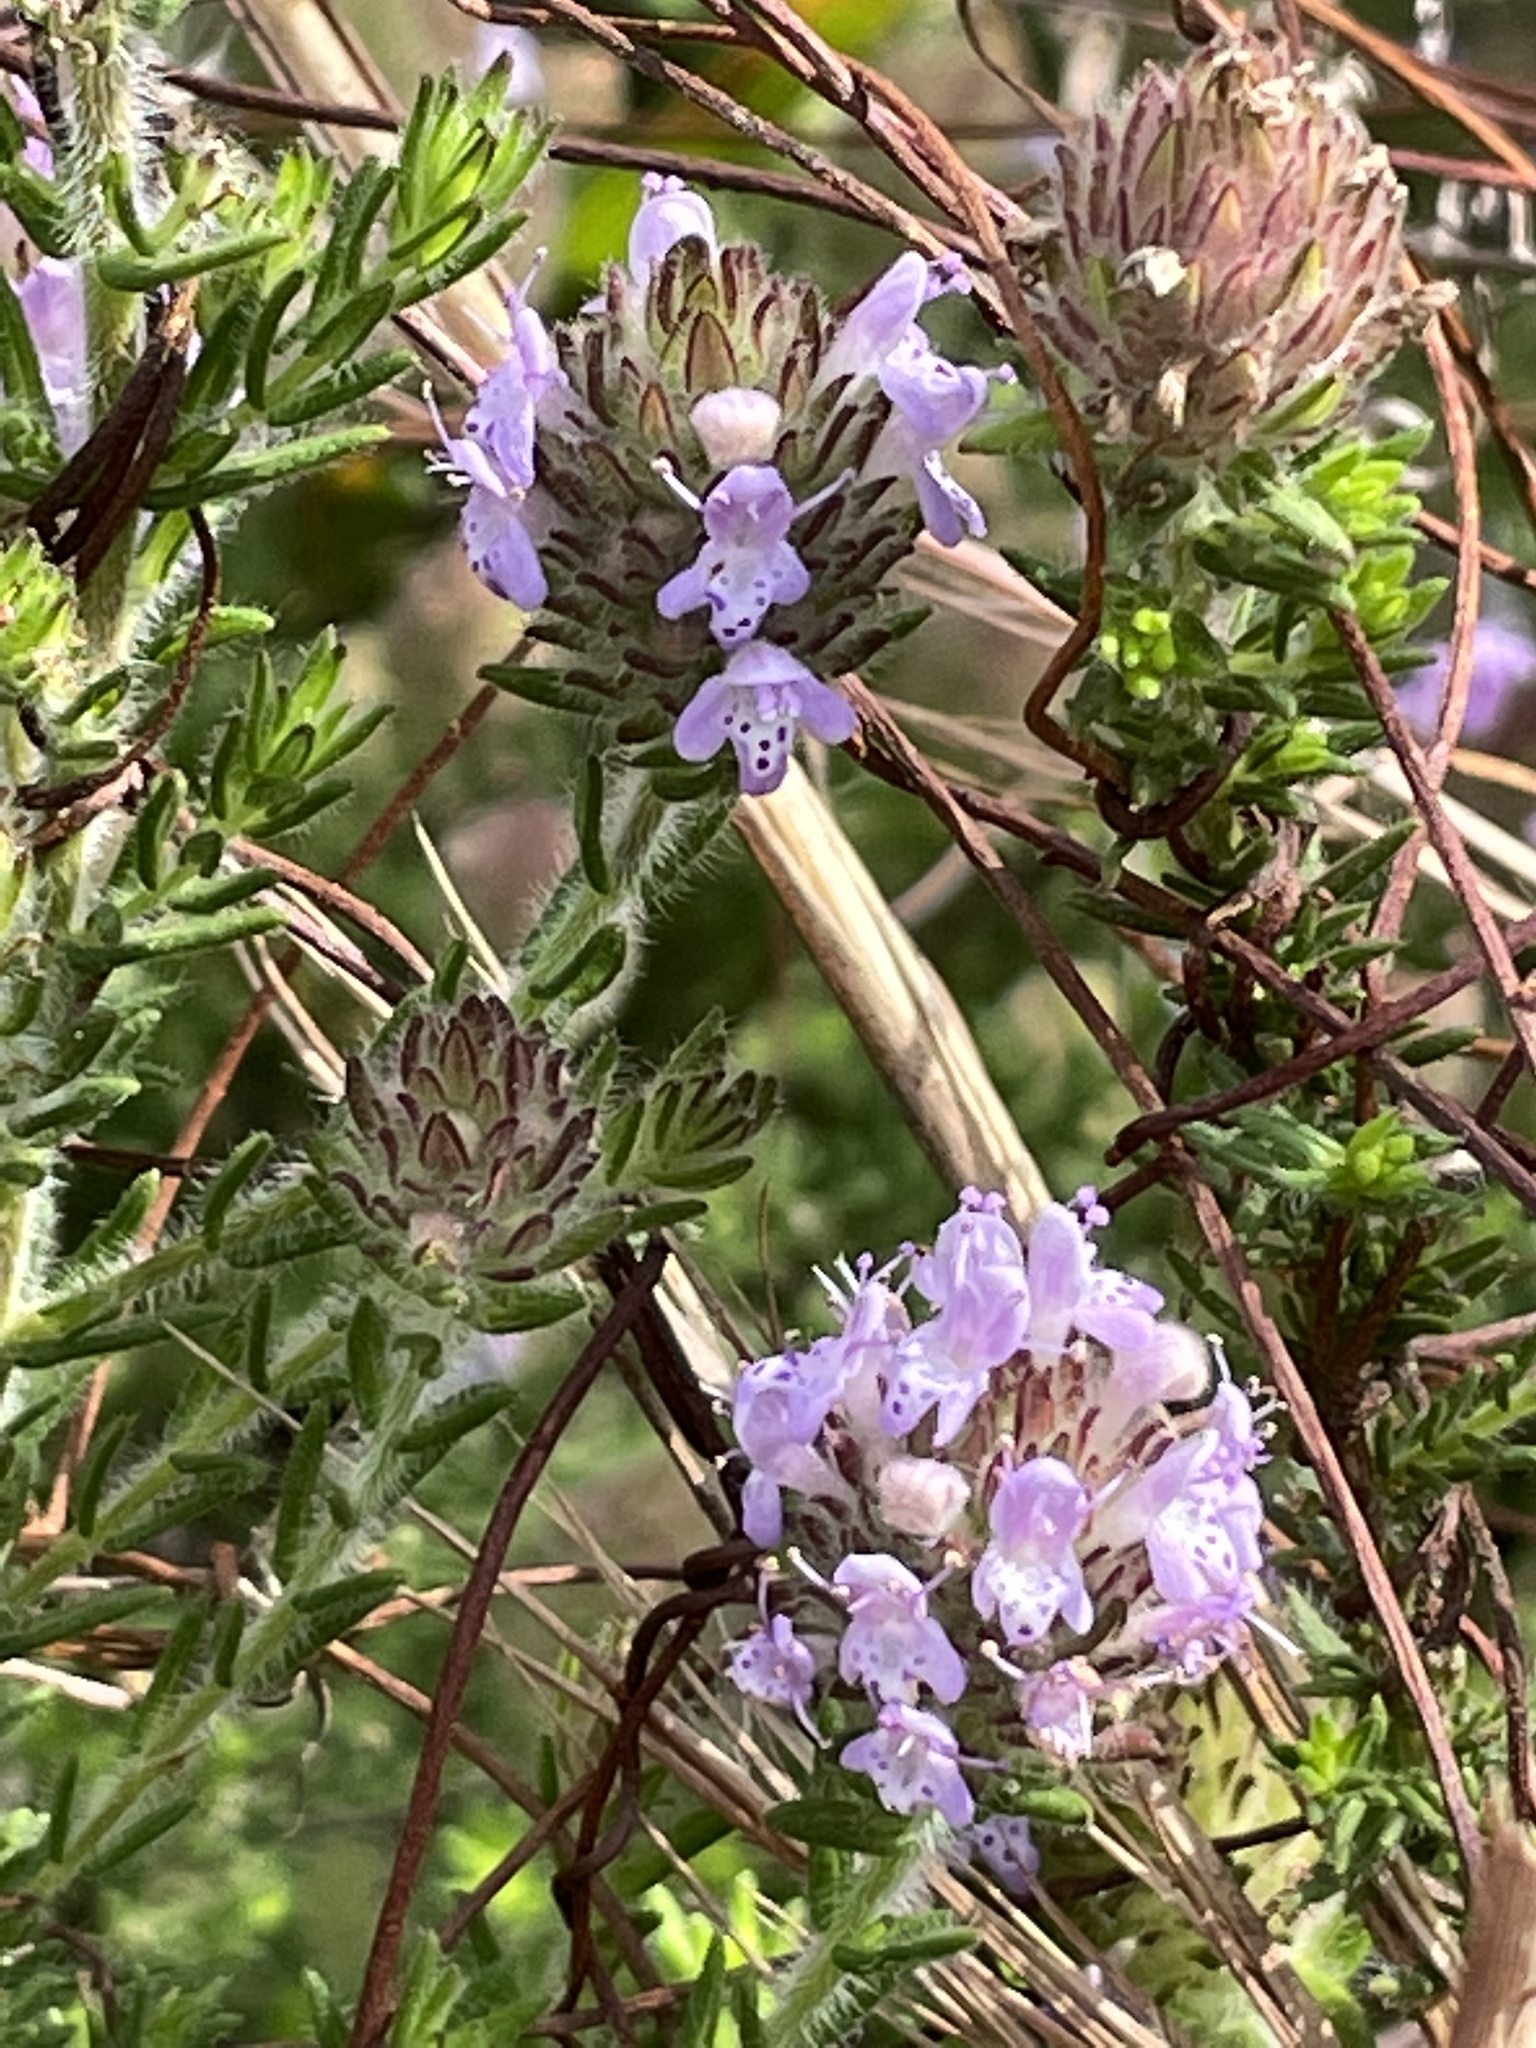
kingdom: Plantae
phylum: Tracheophyta
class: Magnoliopsida
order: Lamiales
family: Lamiaceae
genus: Piloblephis
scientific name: Piloblephis rigida
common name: Wild pennyroyal
